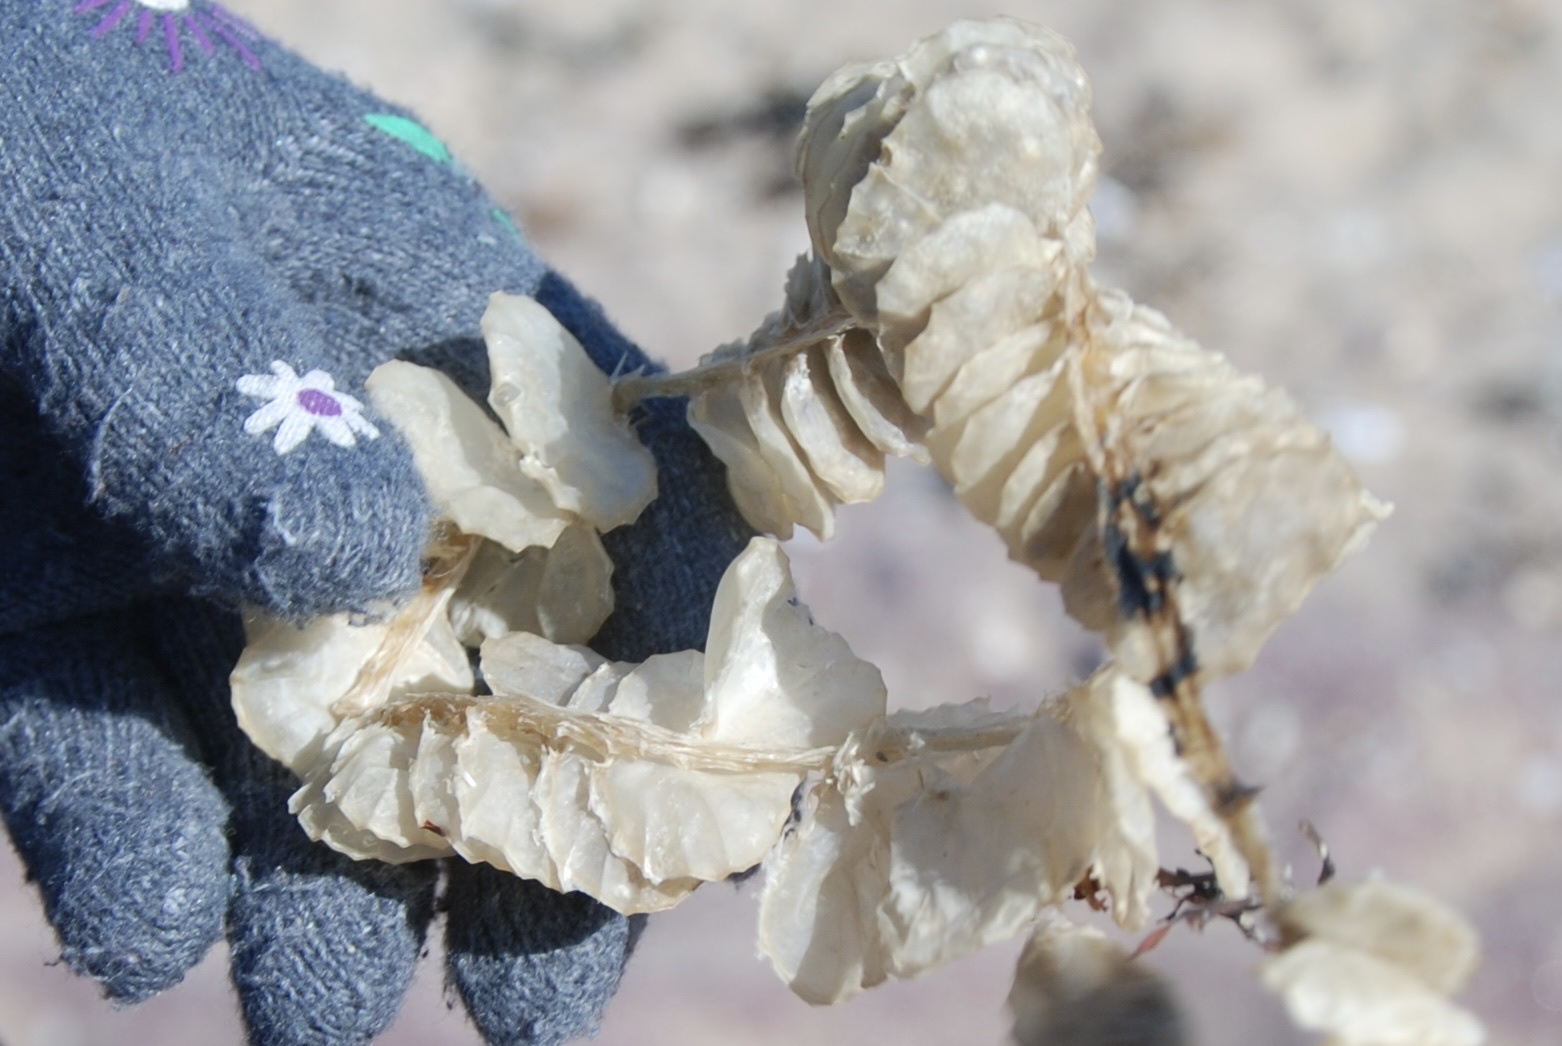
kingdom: Animalia
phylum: Mollusca
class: Gastropoda
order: Neogastropoda
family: Busyconidae
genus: Busycotypus
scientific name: Busycotypus canaliculatus
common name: Channeled whelk
